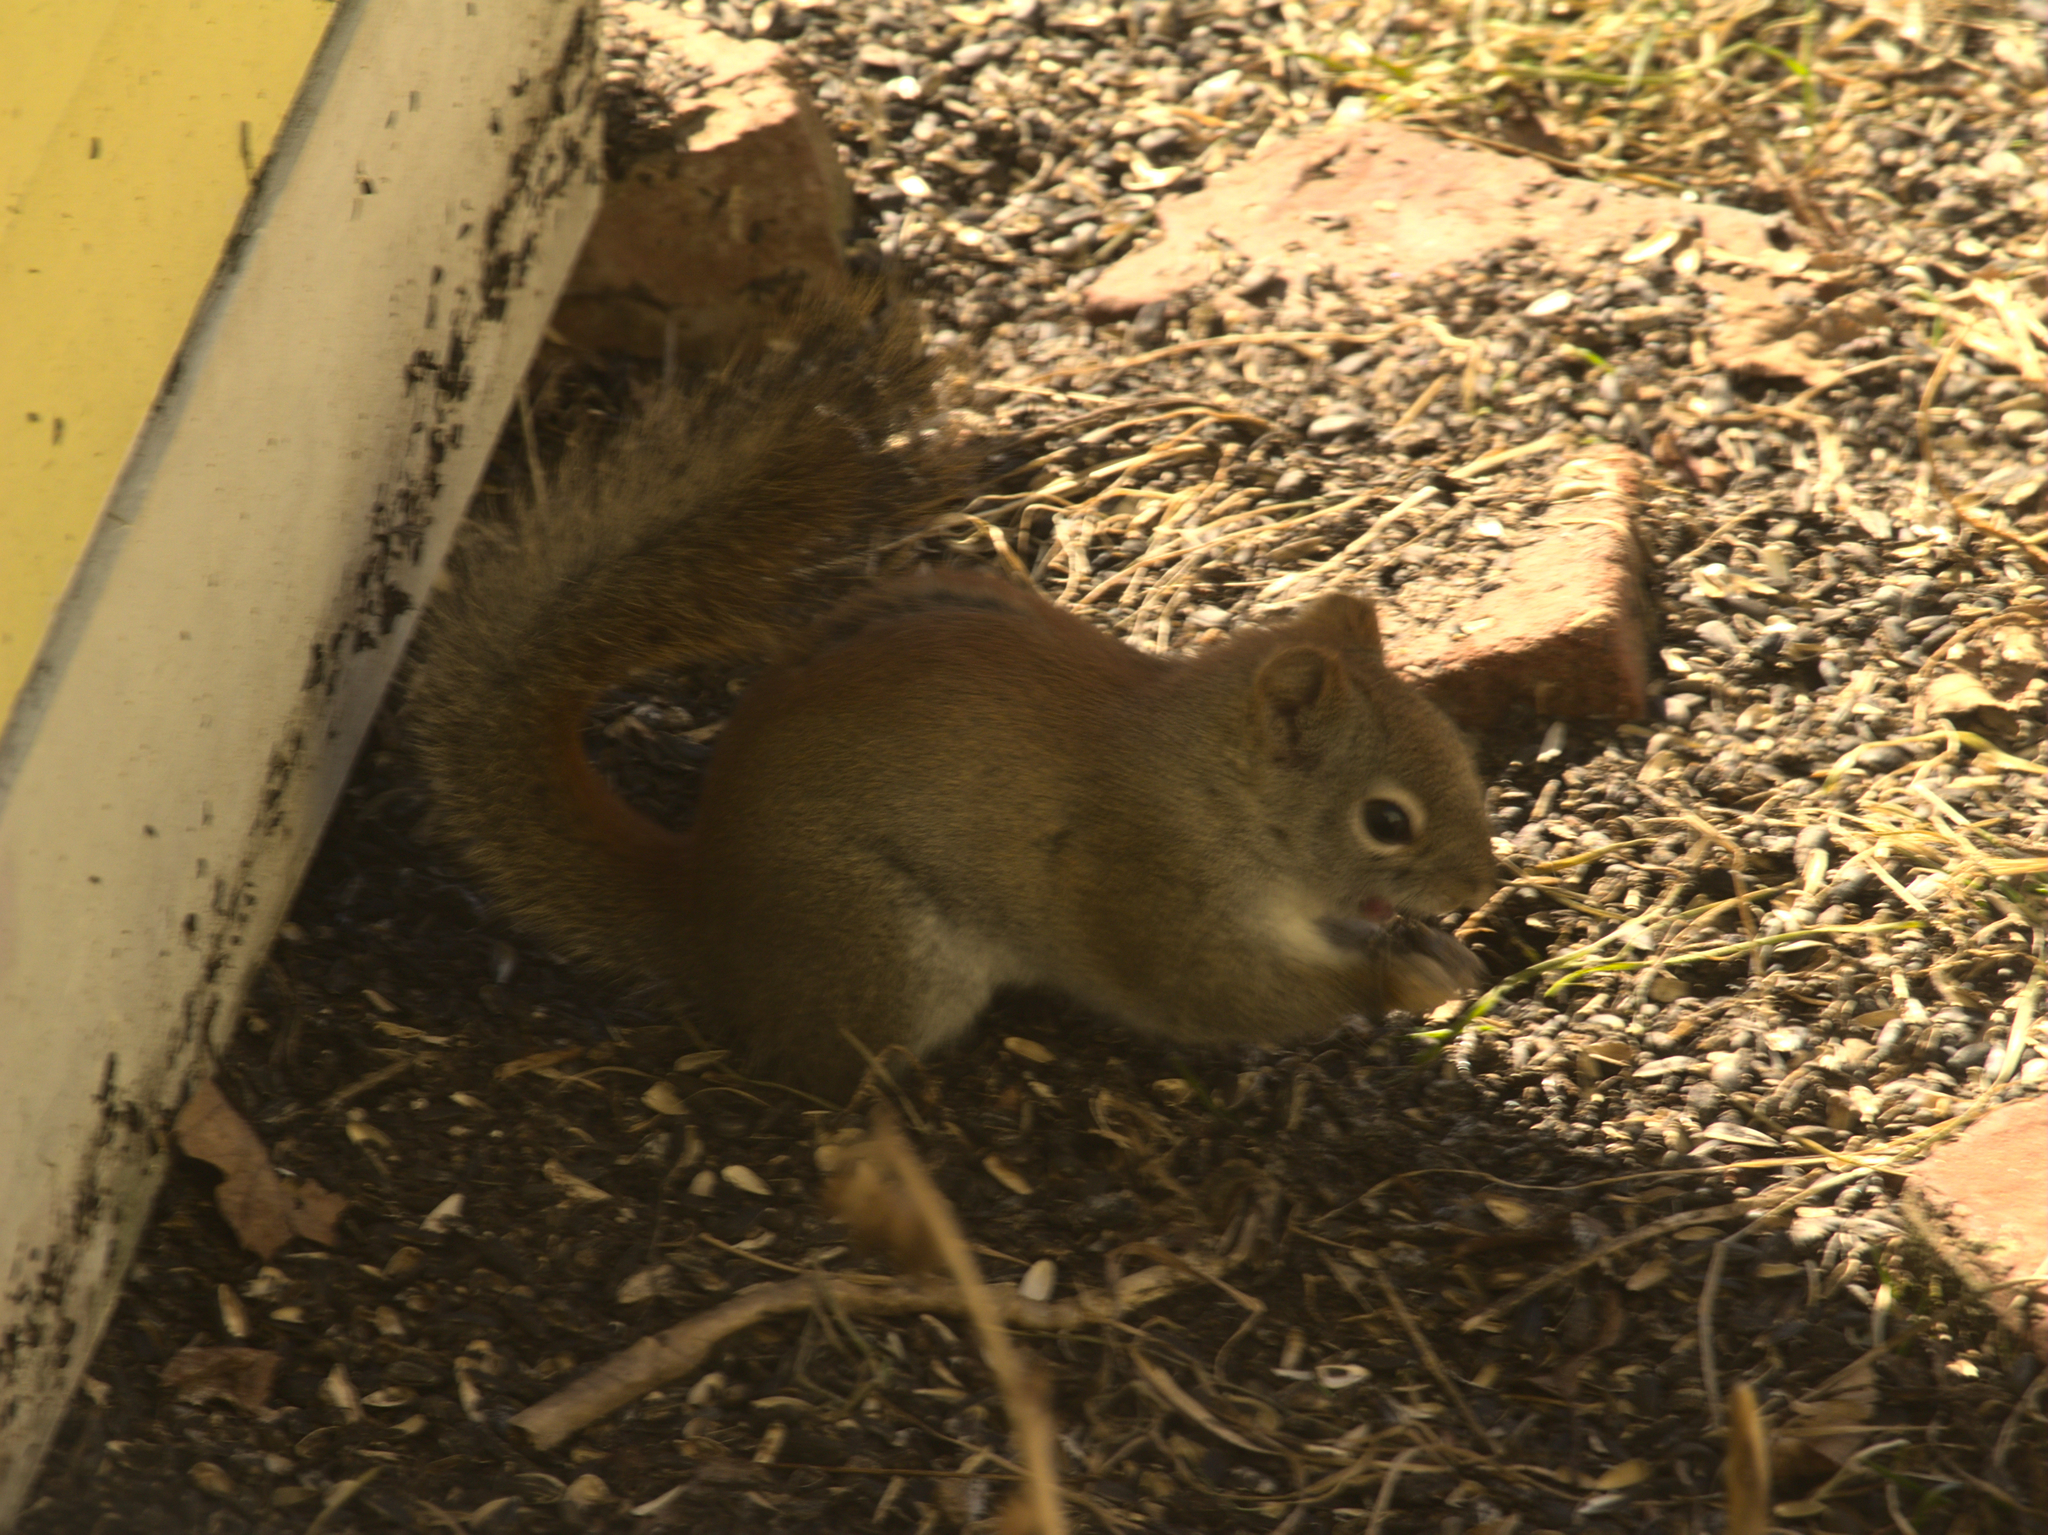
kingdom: Animalia
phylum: Chordata
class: Mammalia
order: Rodentia
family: Sciuridae
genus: Tamiasciurus
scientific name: Tamiasciurus hudsonicus
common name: Red squirrel
